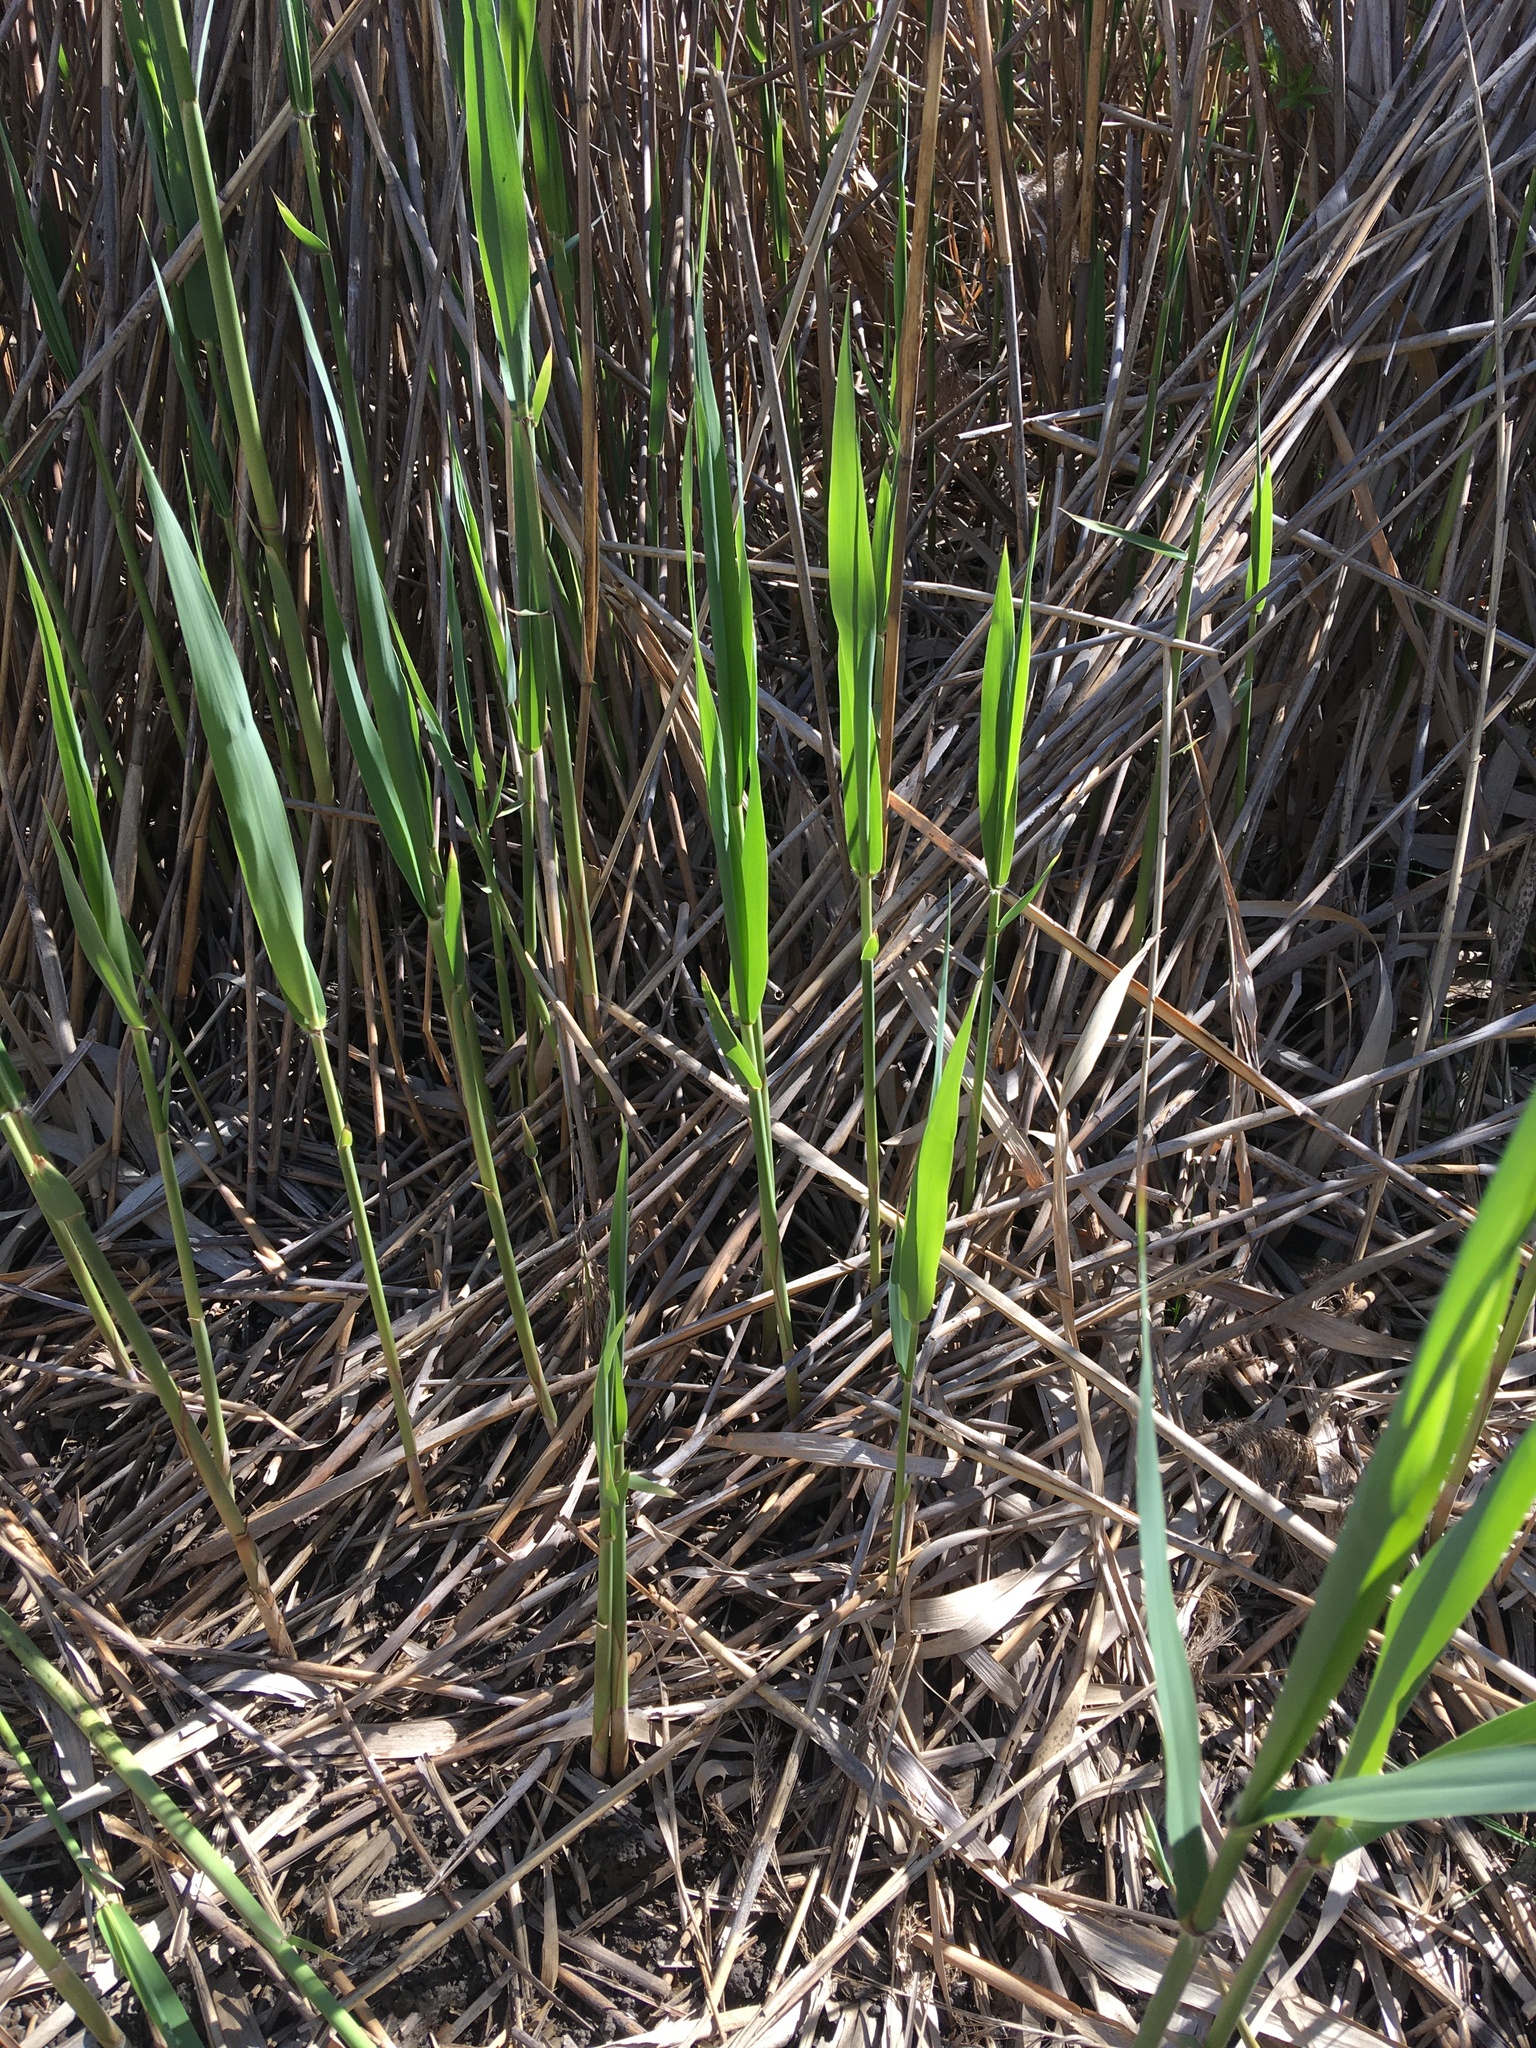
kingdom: Plantae
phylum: Tracheophyta
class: Liliopsida
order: Poales
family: Poaceae
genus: Phragmites
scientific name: Phragmites australis
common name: Common reed
